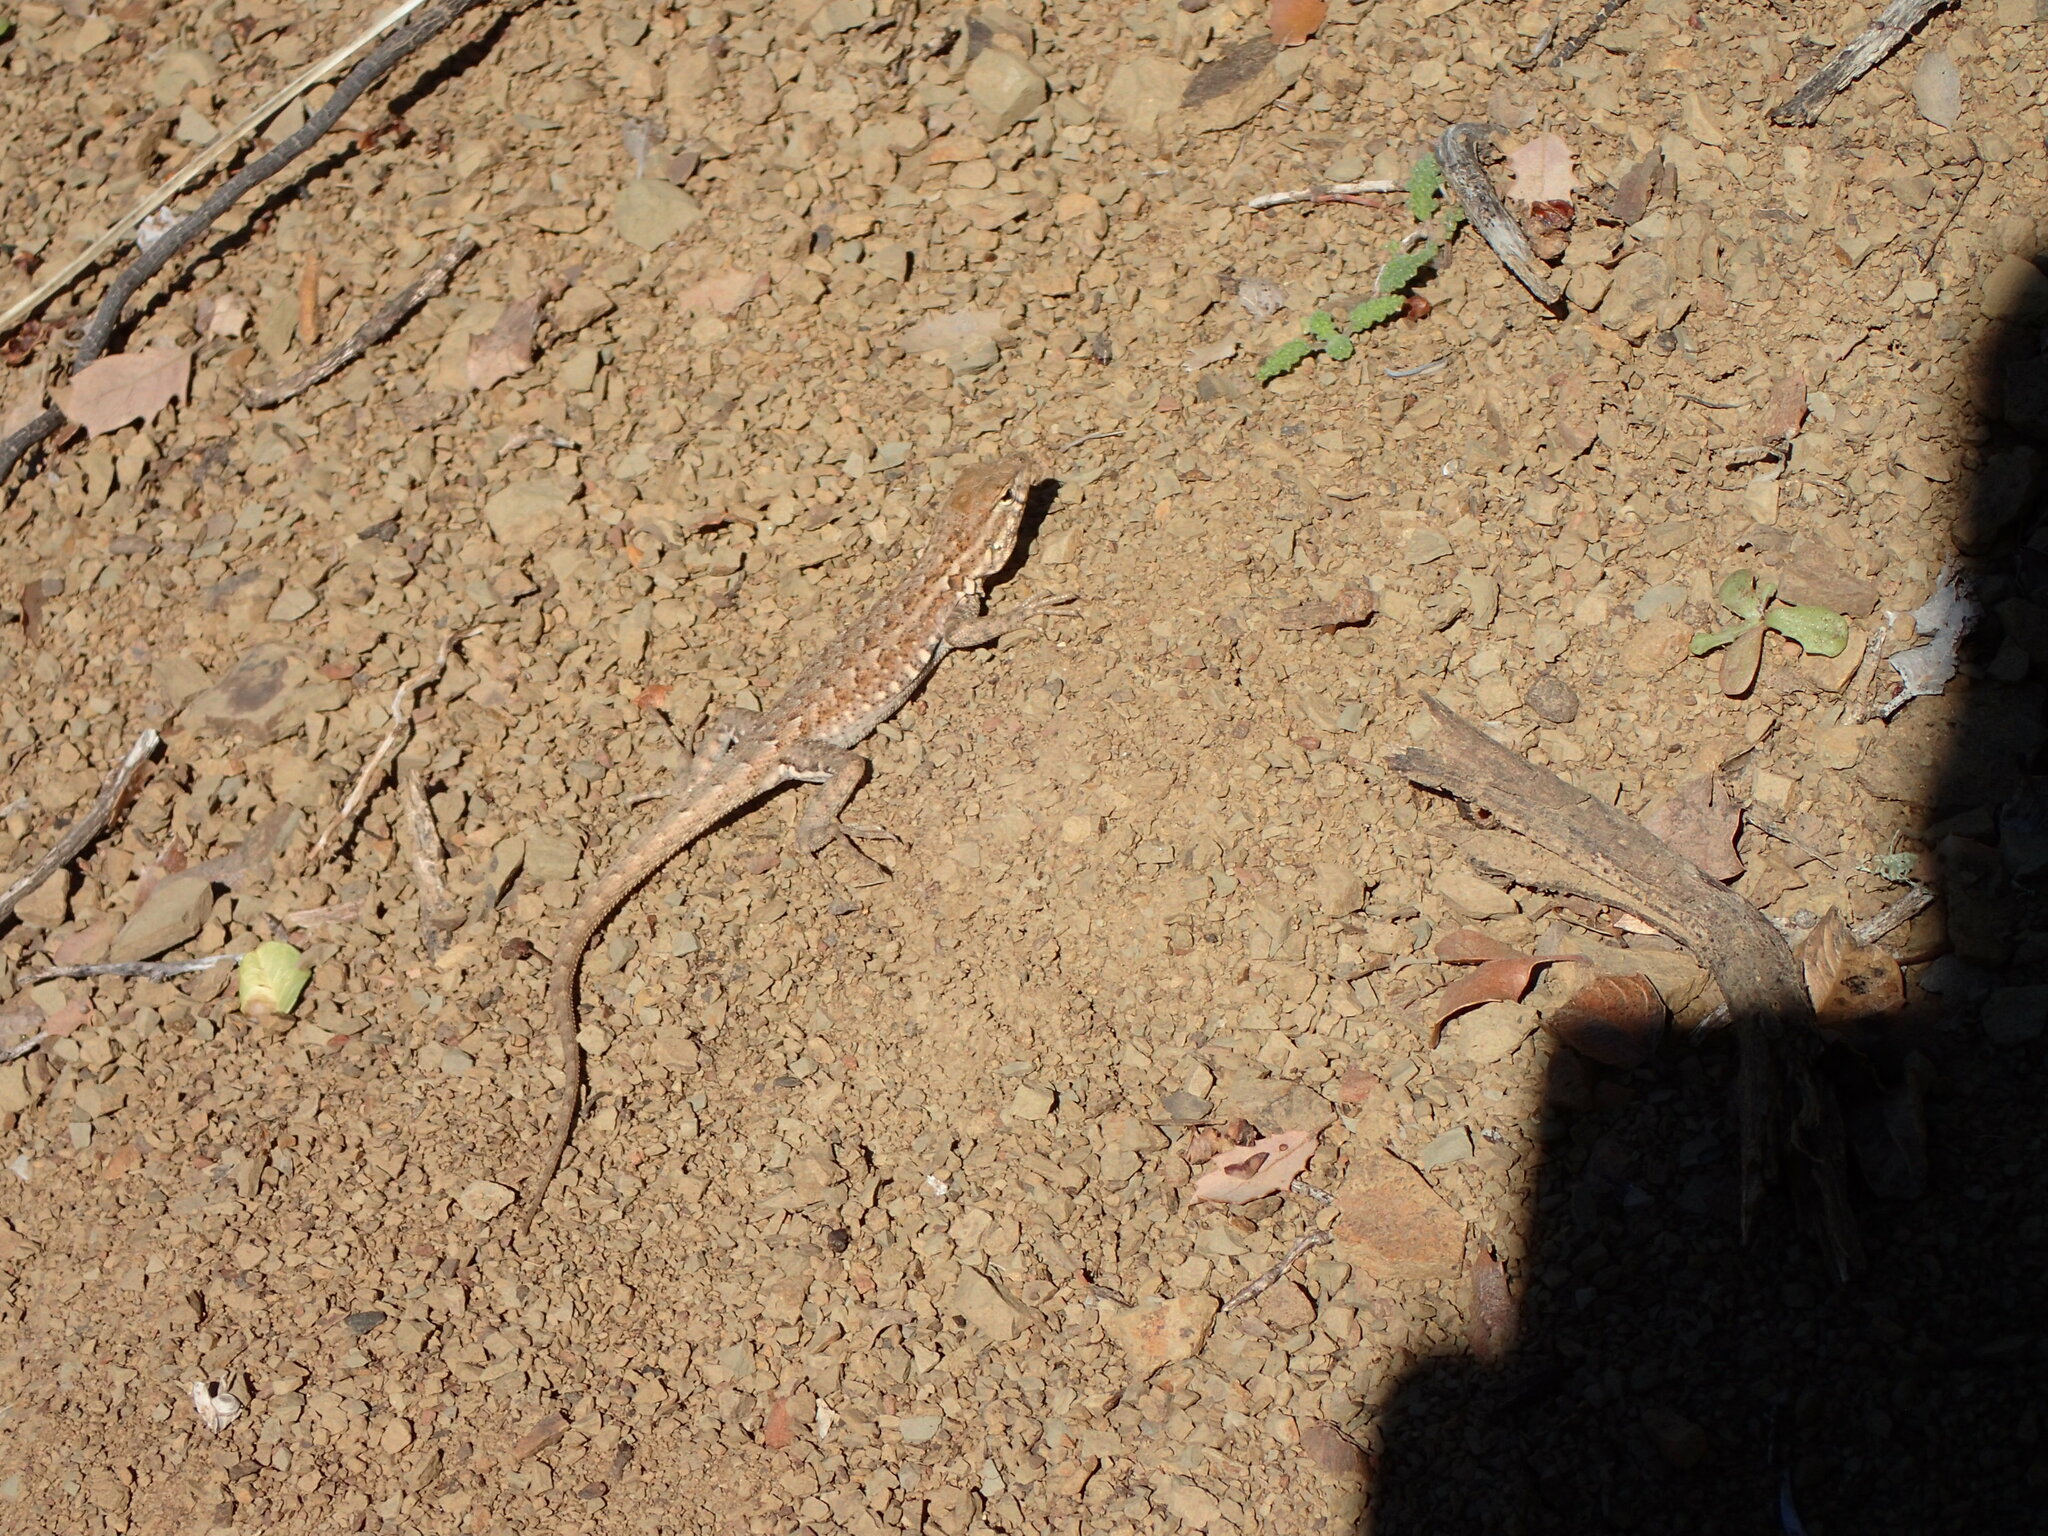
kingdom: Animalia
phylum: Chordata
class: Squamata
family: Phrynosomatidae
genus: Uta
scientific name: Uta stansburiana
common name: Side-blotched lizard
